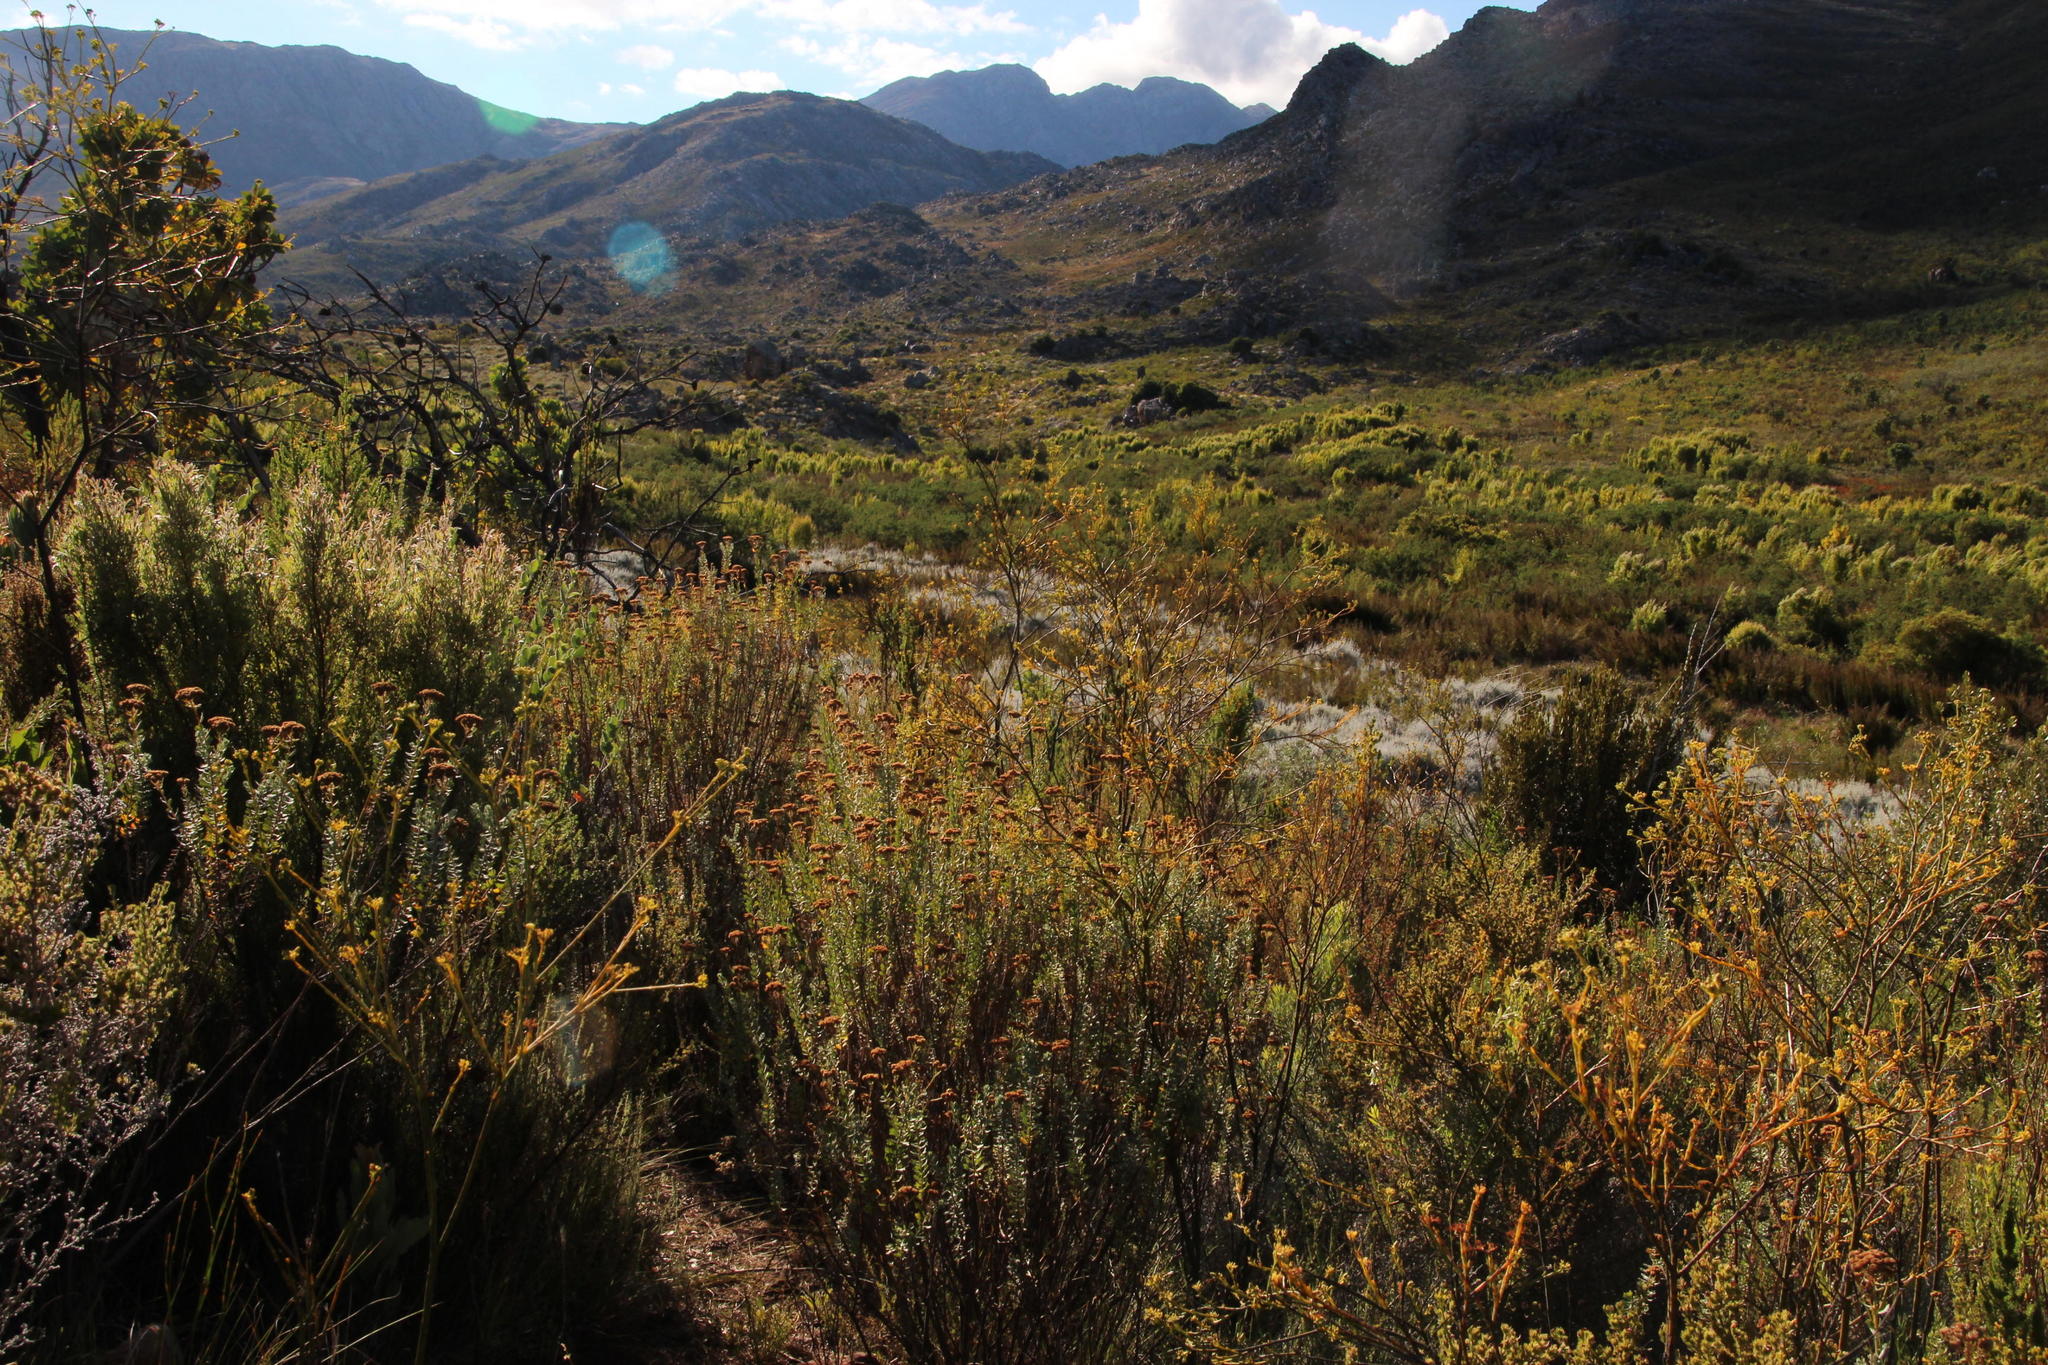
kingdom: Plantae
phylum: Tracheophyta
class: Magnoliopsida
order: Asterales
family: Asteraceae
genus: Athanasia
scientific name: Athanasia trifurcata
